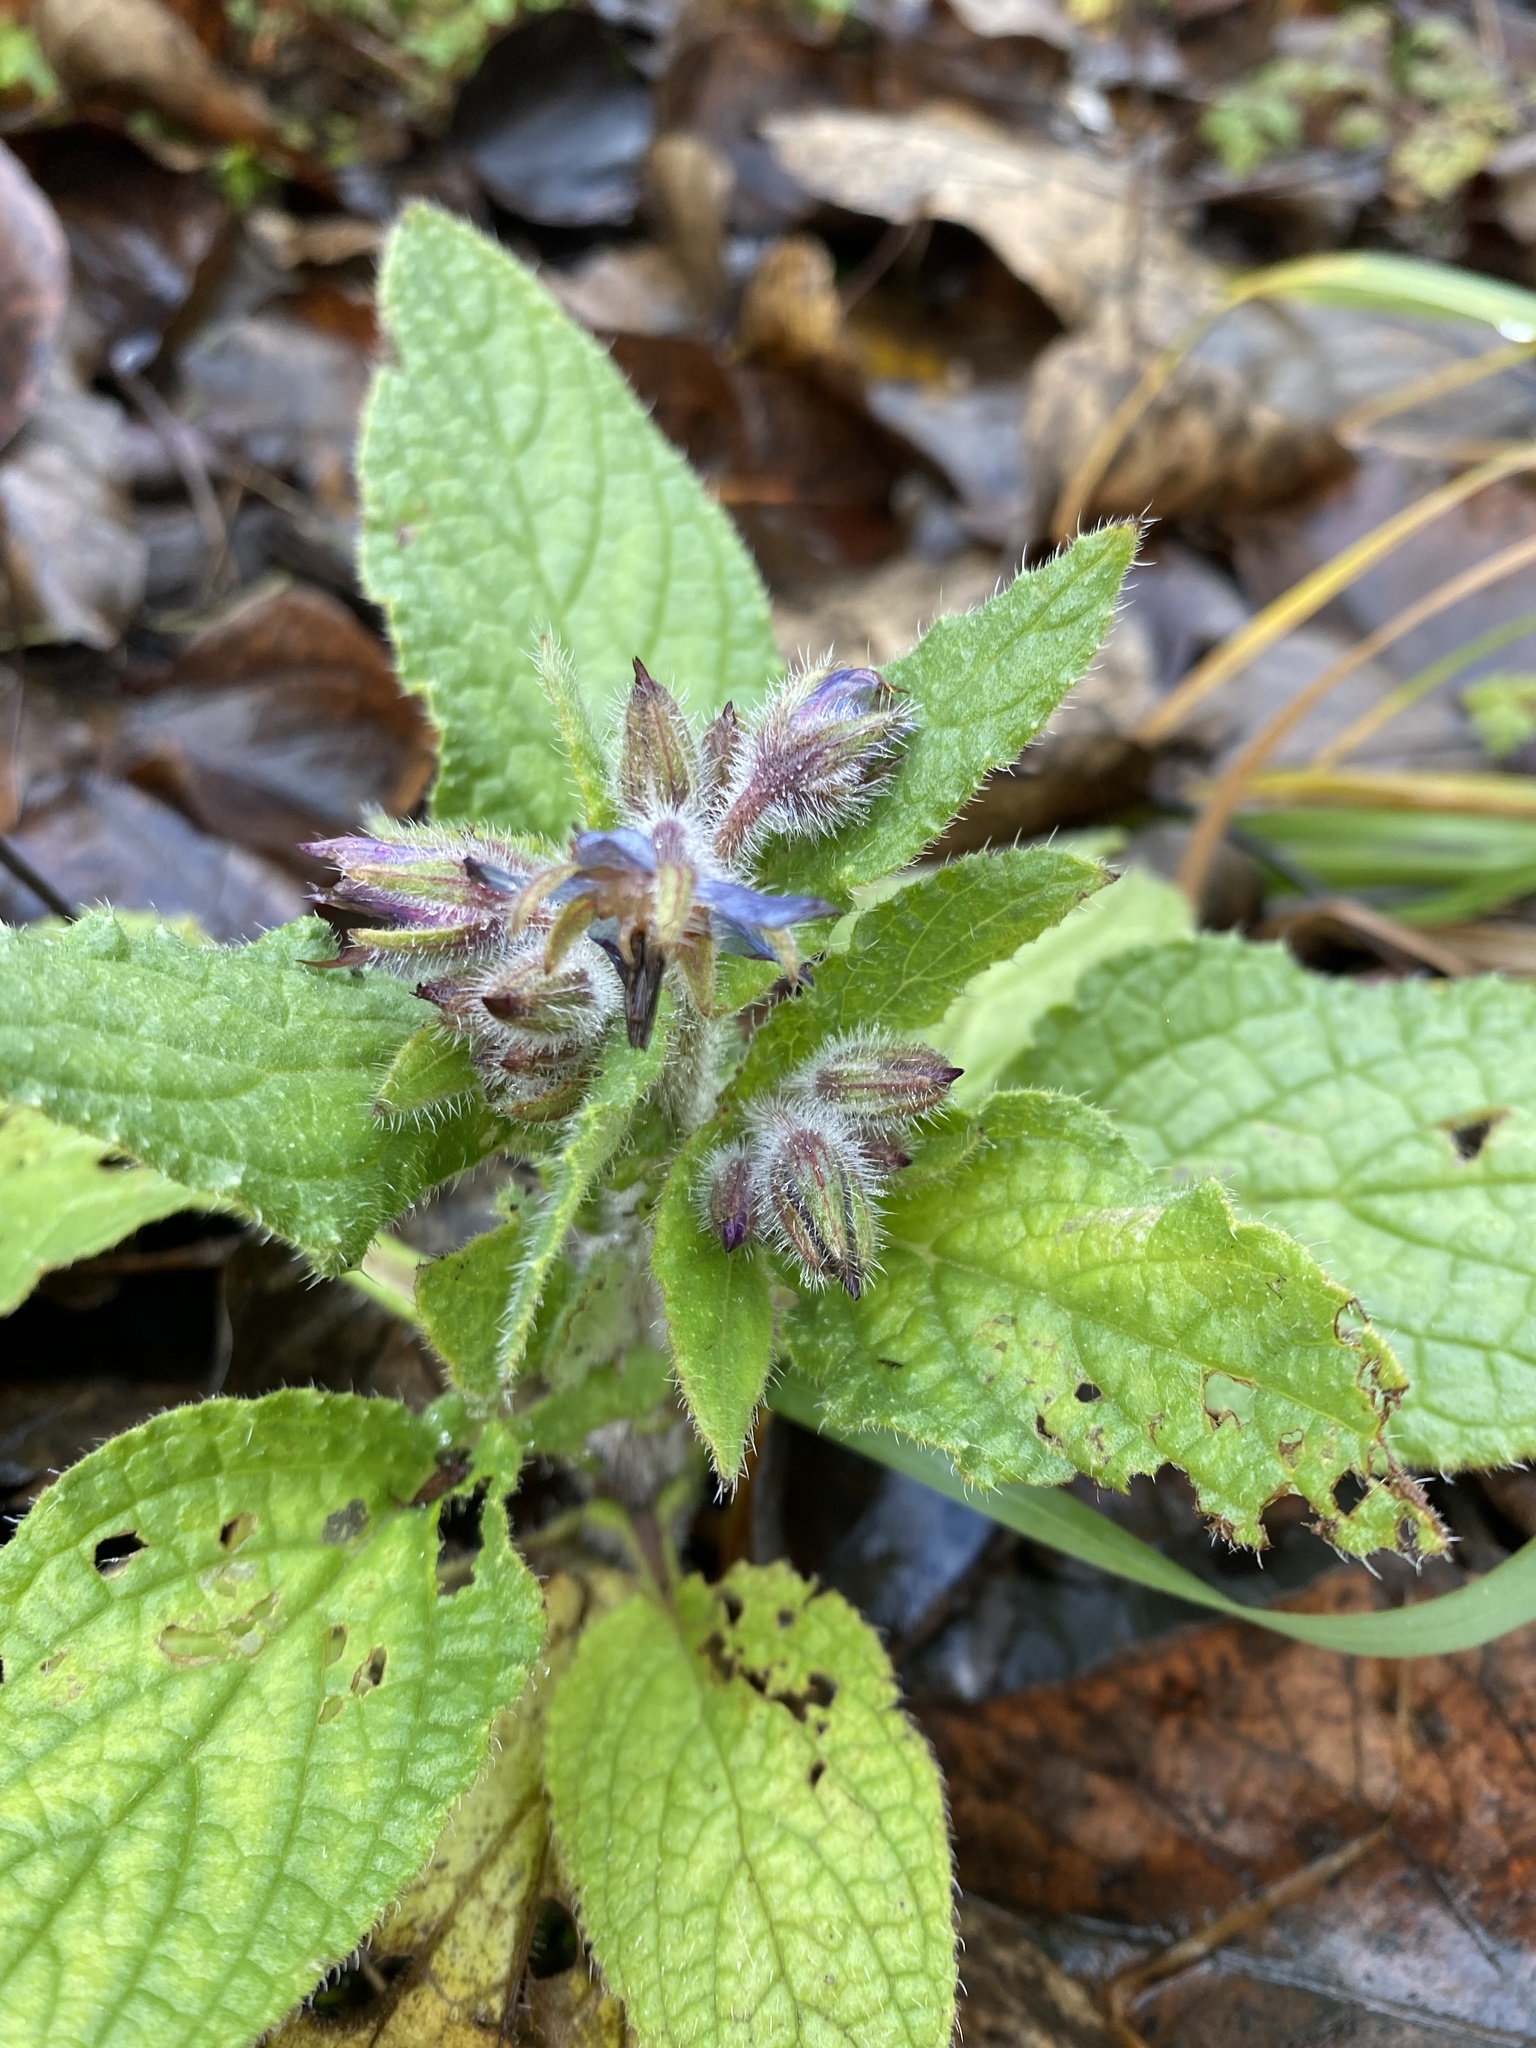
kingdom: Plantae
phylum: Tracheophyta
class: Magnoliopsida
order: Boraginales
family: Boraginaceae
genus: Borago
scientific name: Borago officinalis
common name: Borage
